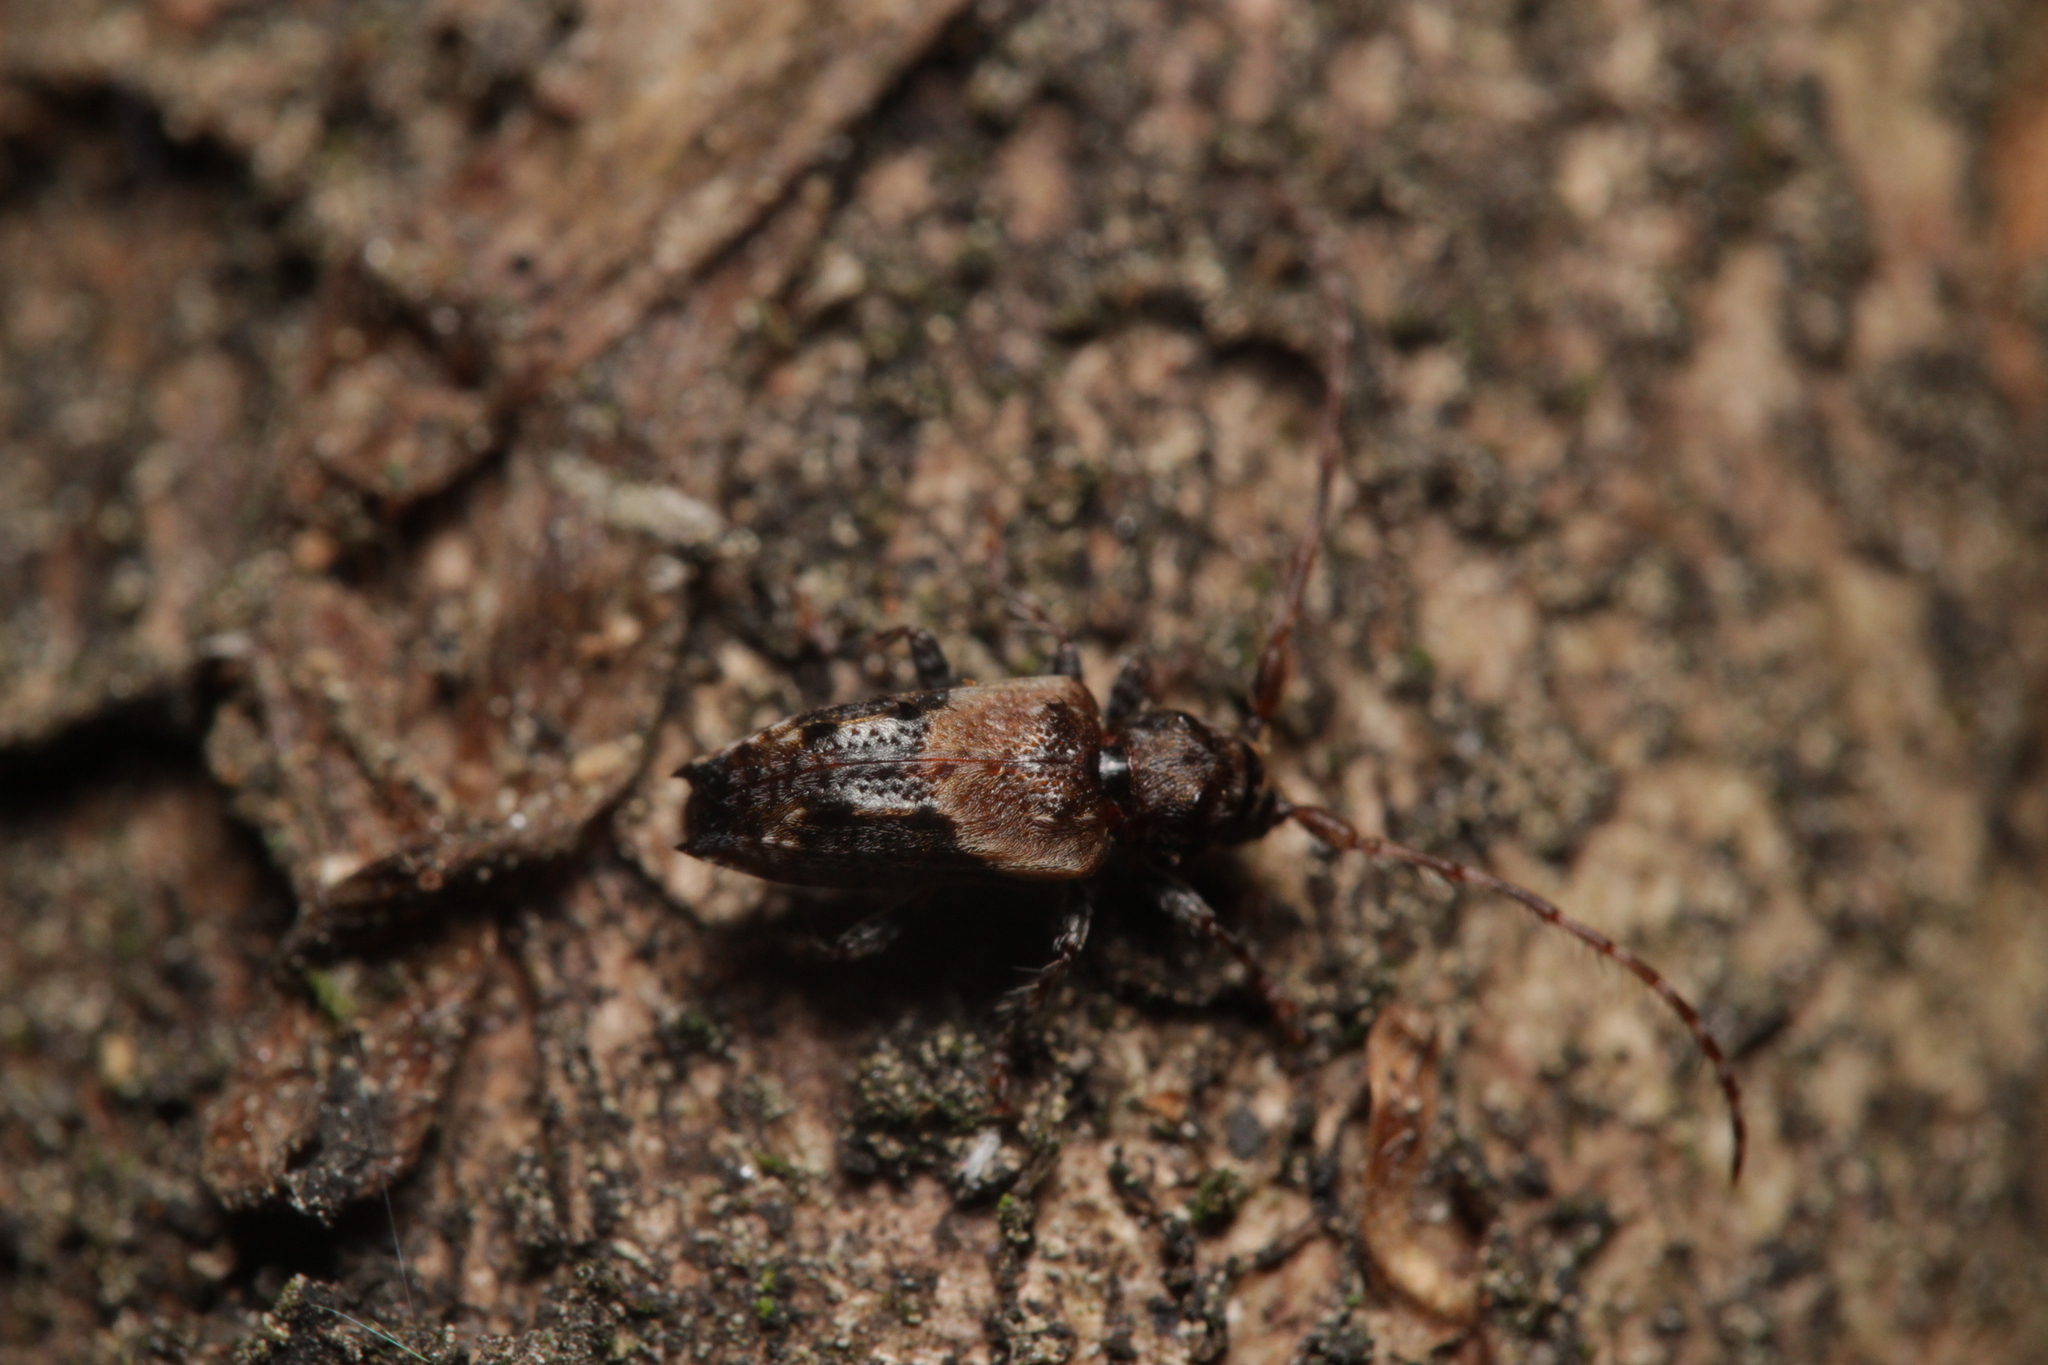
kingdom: Animalia
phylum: Arthropoda
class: Insecta
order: Coleoptera
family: Cerambycidae
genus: Pogonocherus
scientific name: Pogonocherus hispidus
